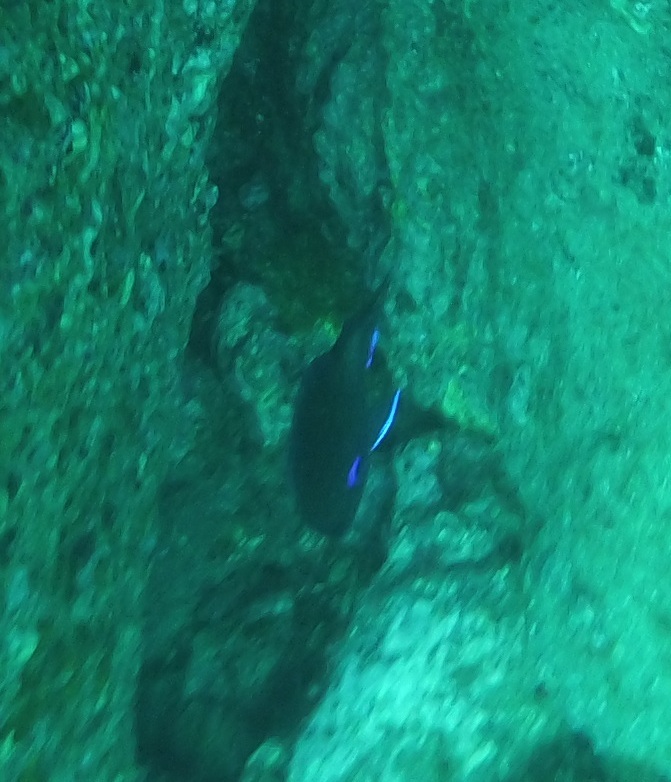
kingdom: Animalia
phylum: Chordata
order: Perciformes
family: Pomacentridae
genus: Similiparma
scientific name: Similiparma lurida
